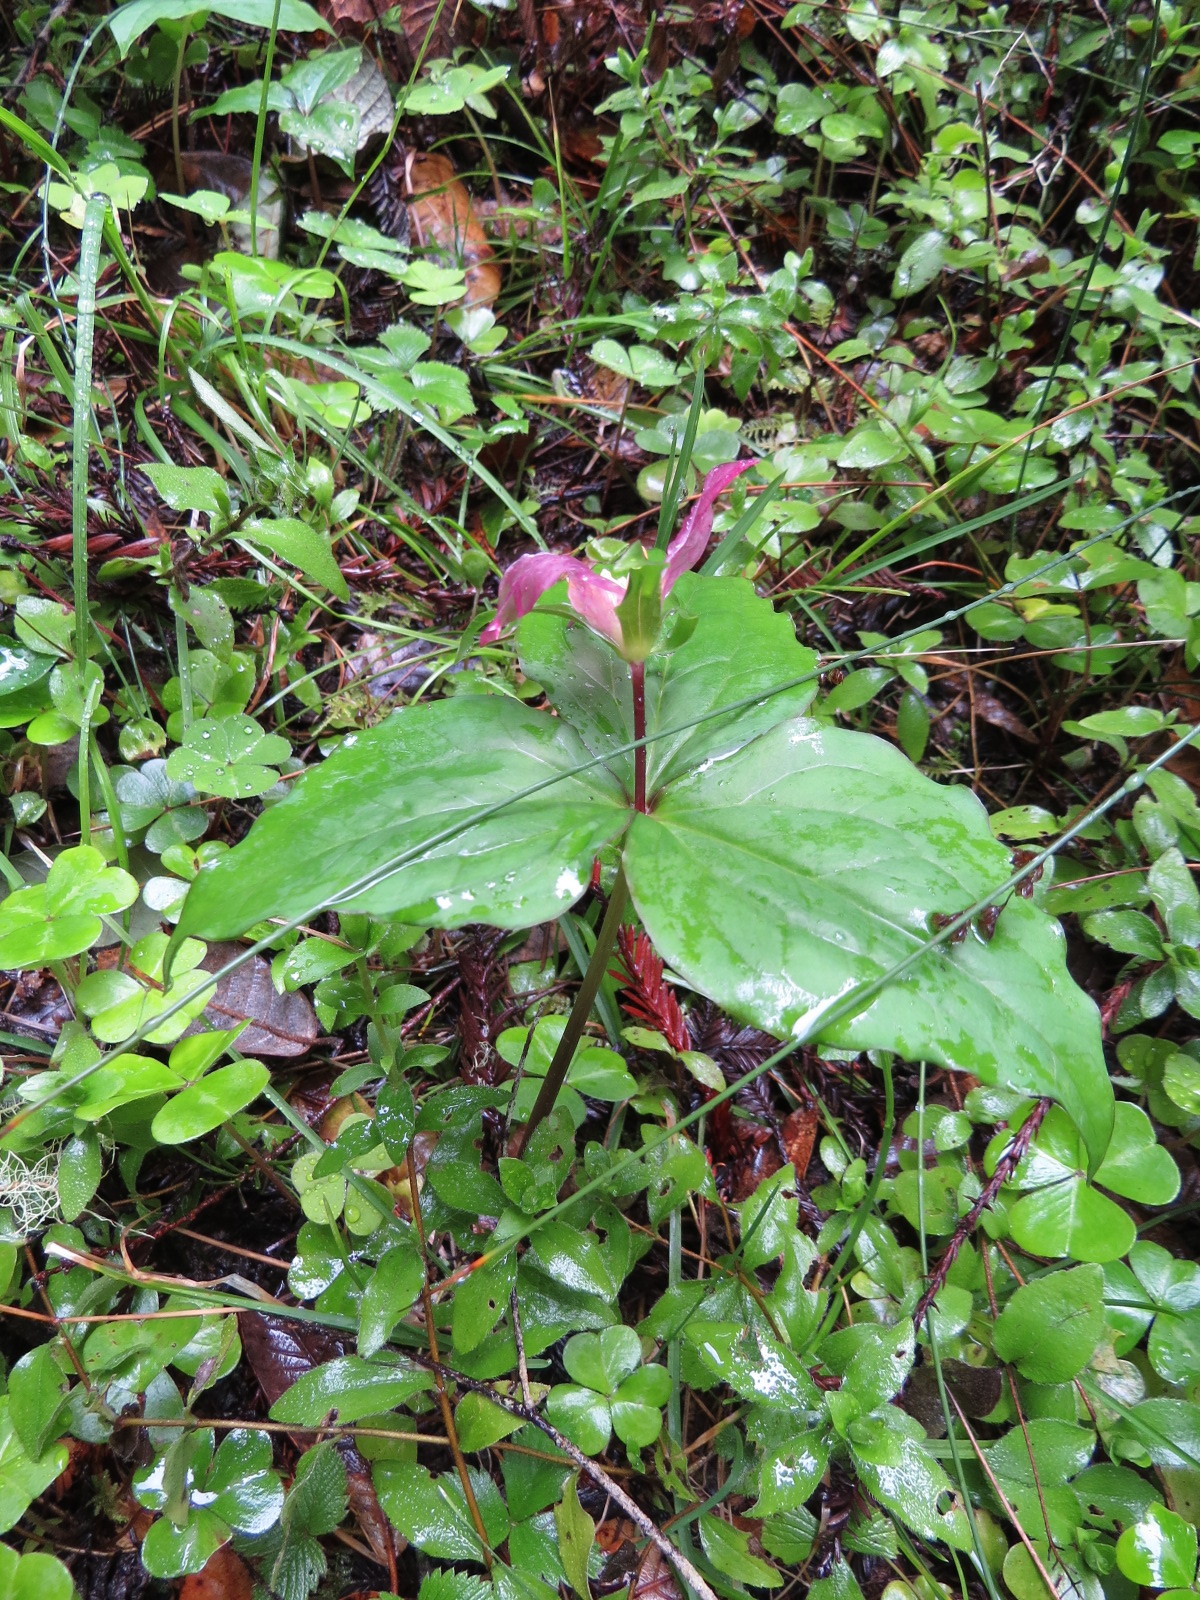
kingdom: Plantae
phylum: Tracheophyta
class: Liliopsida
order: Liliales
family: Melanthiaceae
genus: Trillium
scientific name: Trillium ovatum
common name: Pacific trillium
